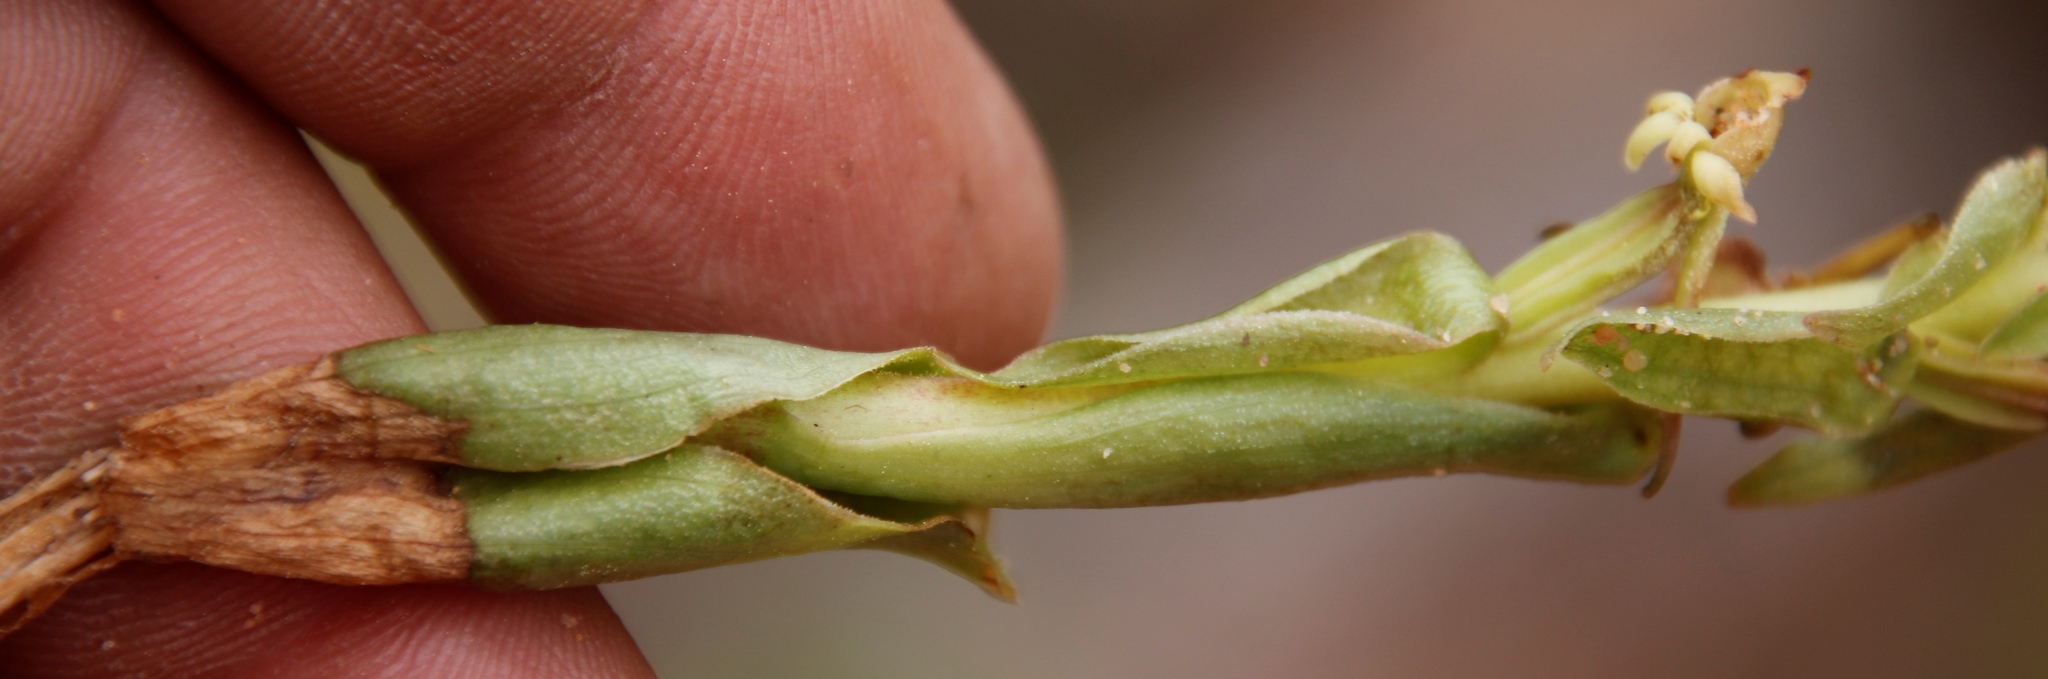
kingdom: Plantae
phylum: Tracheophyta
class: Liliopsida
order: Asparagales
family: Orchidaceae
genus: Satyrium
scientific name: Satyrium humile
